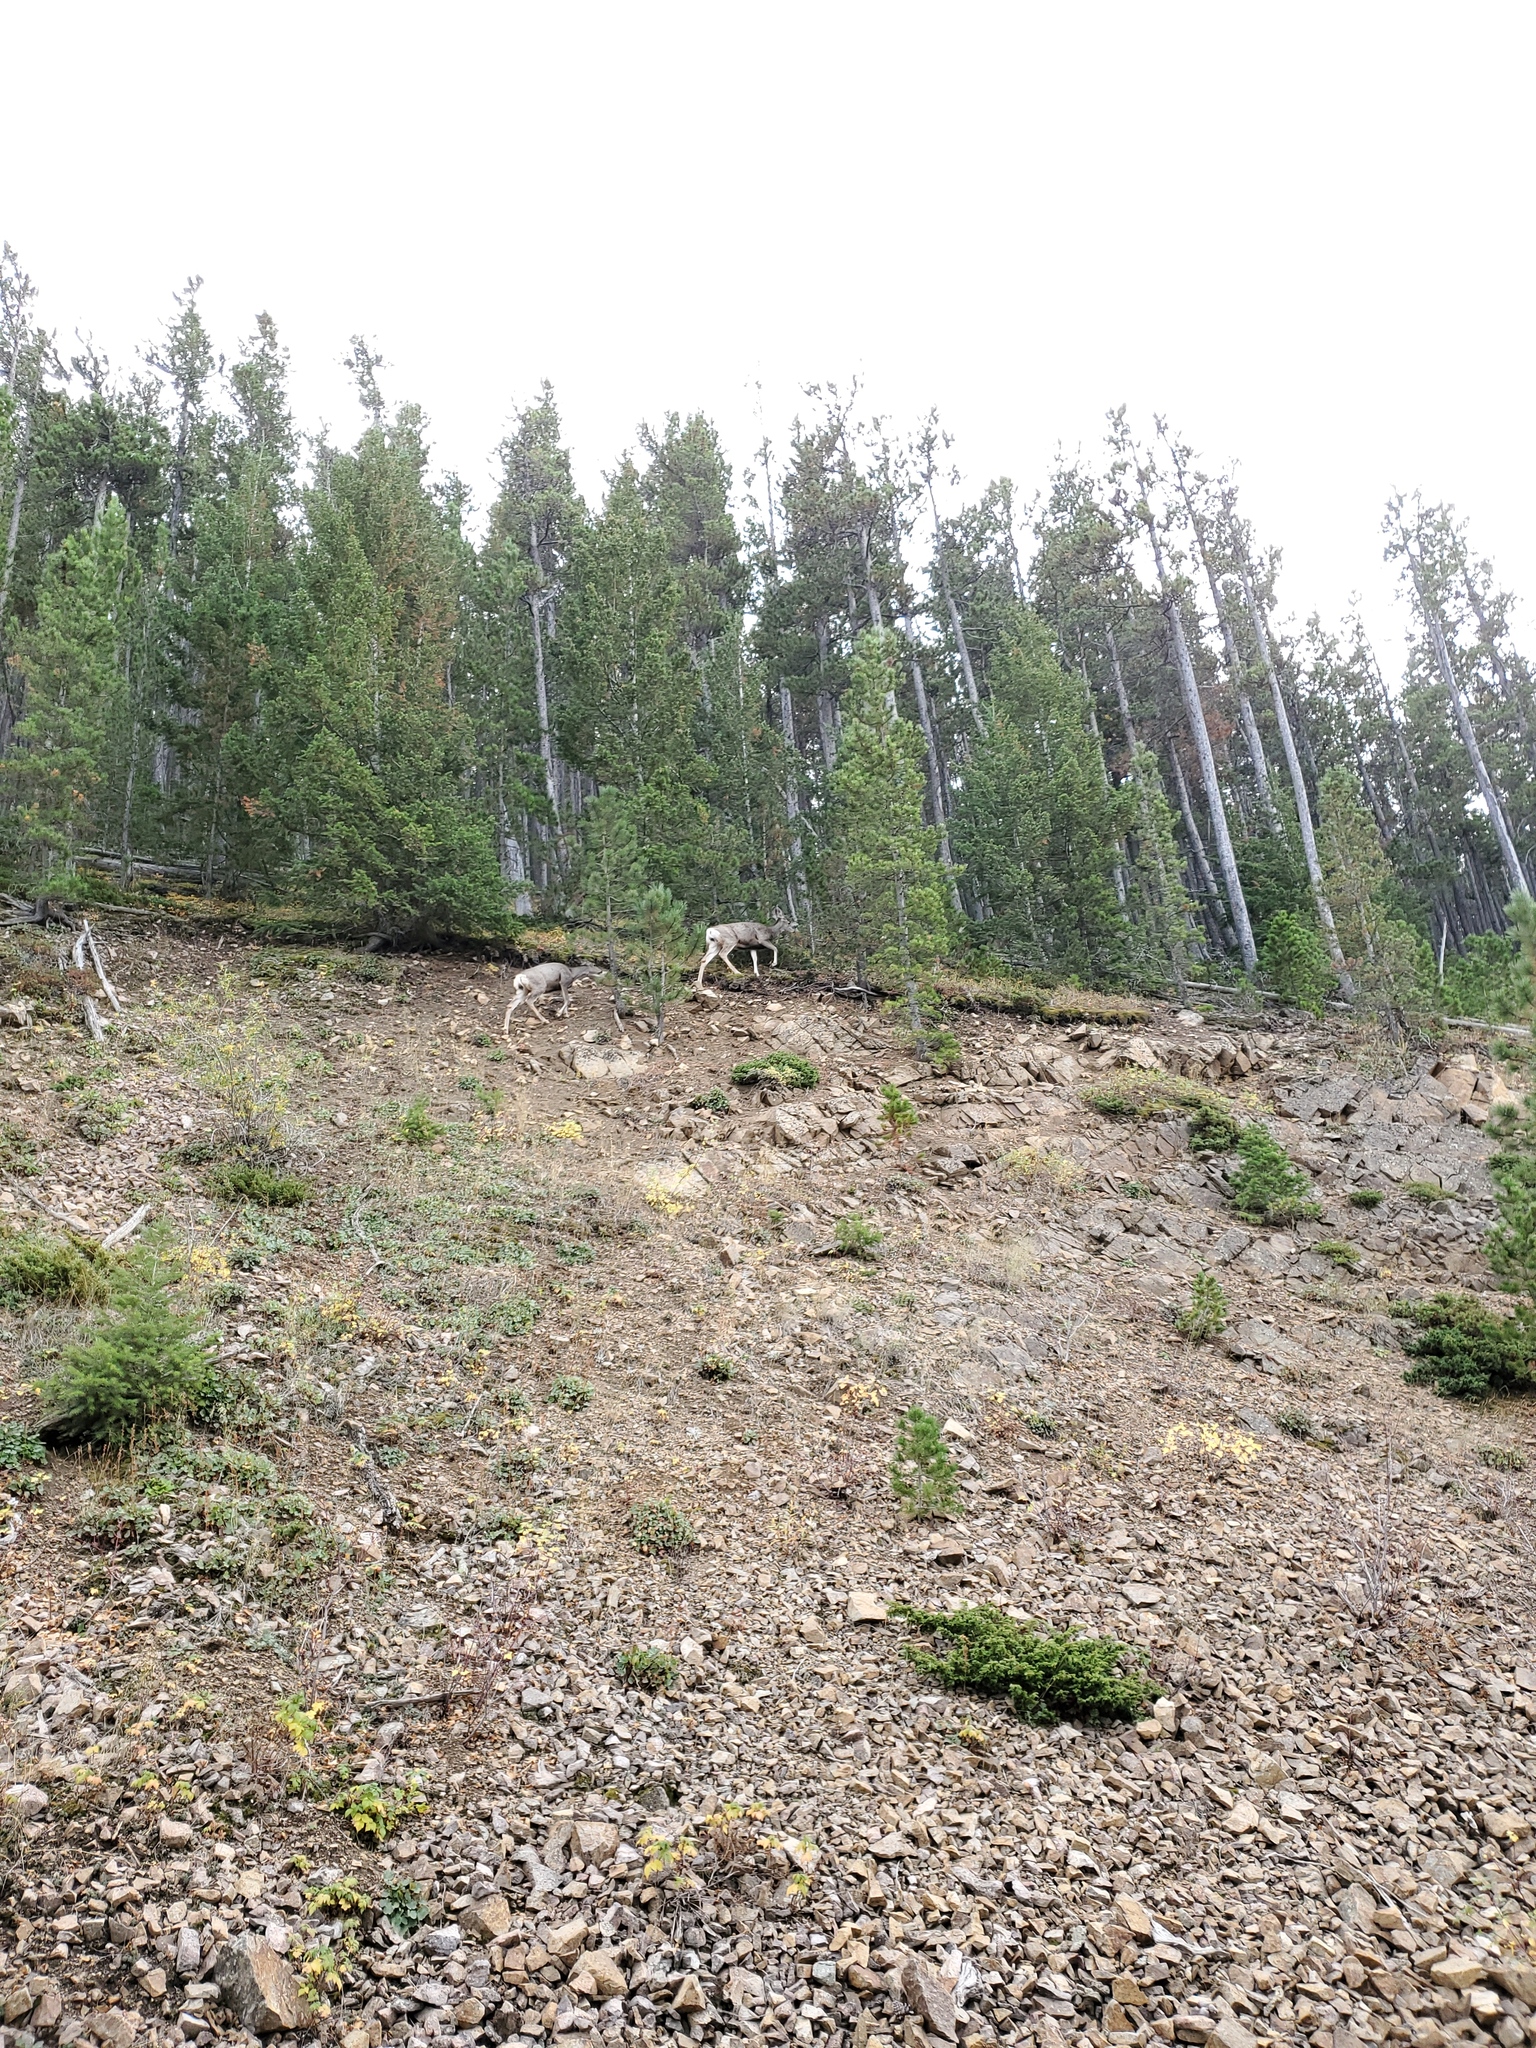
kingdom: Animalia
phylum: Chordata
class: Mammalia
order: Artiodactyla
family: Cervidae
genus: Odocoileus
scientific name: Odocoileus hemionus
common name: Mule deer
